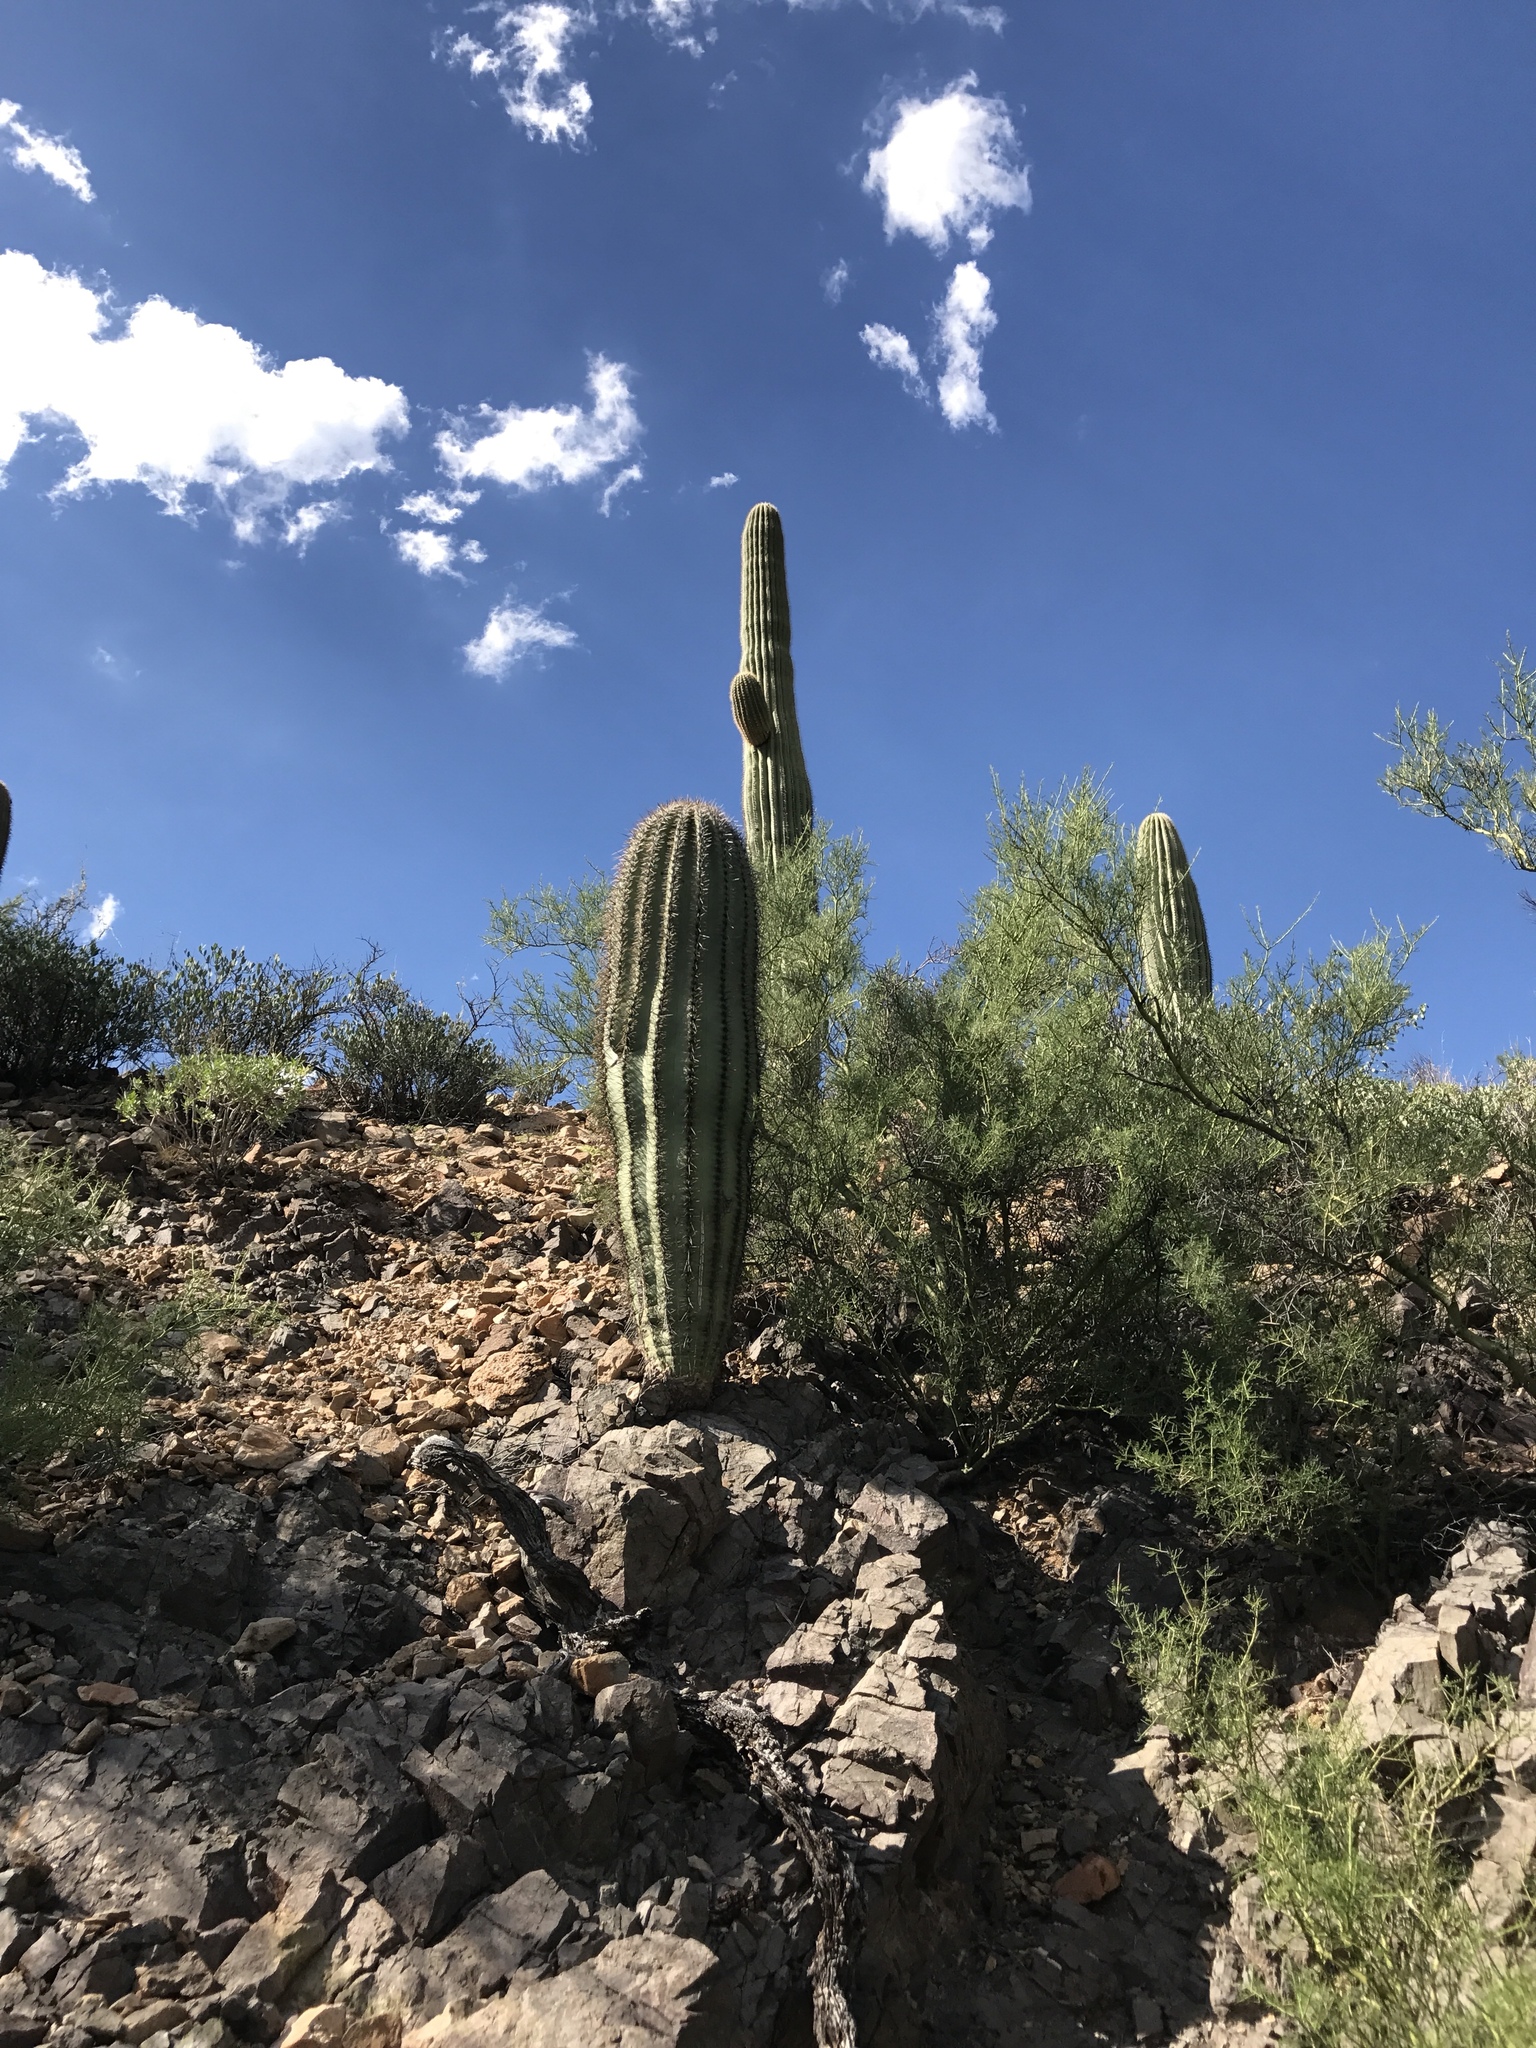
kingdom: Plantae
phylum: Tracheophyta
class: Magnoliopsida
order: Caryophyllales
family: Cactaceae
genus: Carnegiea
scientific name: Carnegiea gigantea
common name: Saguaro
